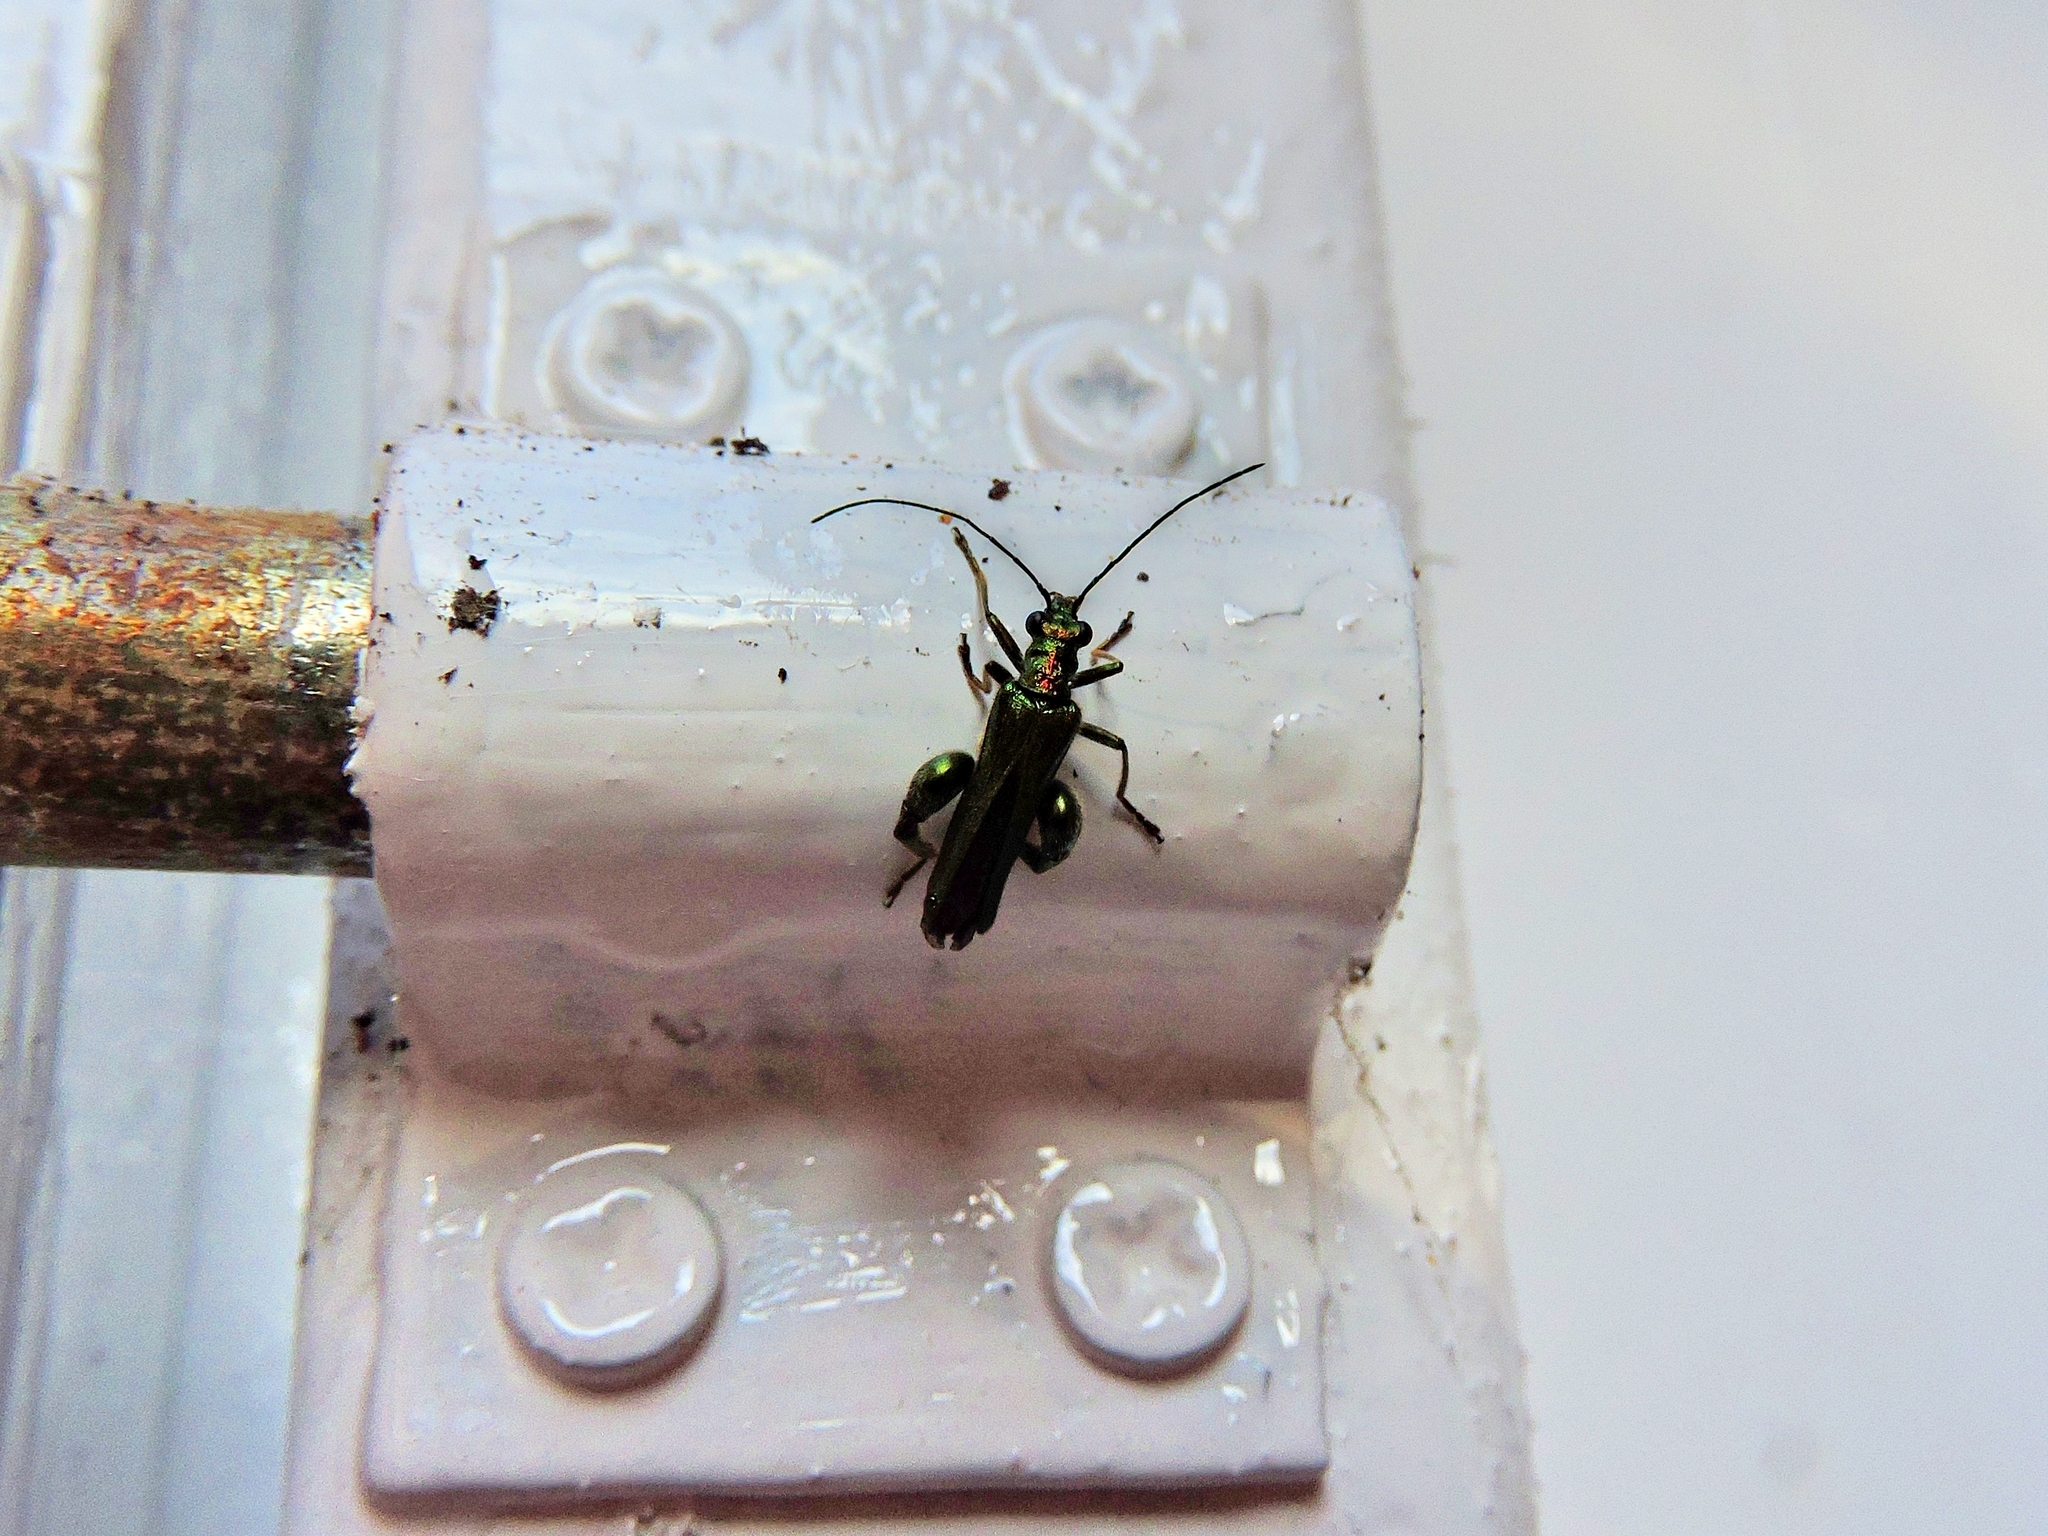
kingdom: Animalia
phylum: Arthropoda
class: Insecta
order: Coleoptera
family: Oedemeridae
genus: Oedemera
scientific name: Oedemera nobilis
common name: Swollen-thighed beetle
